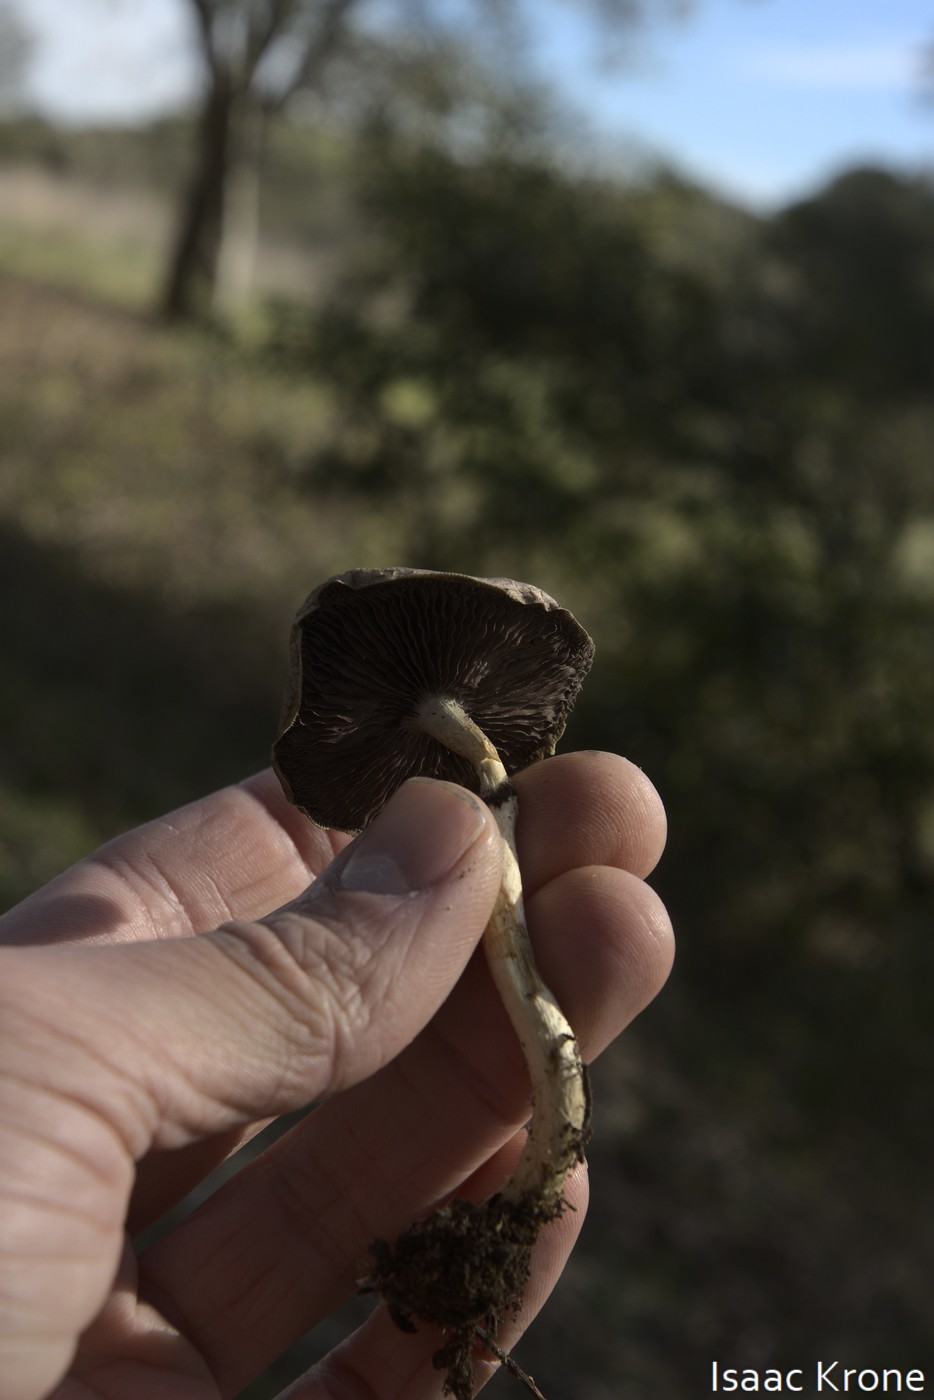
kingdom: Fungi
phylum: Basidiomycota
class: Agaricomycetes
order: Agaricales
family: Strophariaceae
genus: Leratiomyces
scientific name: Leratiomyces percevalii
